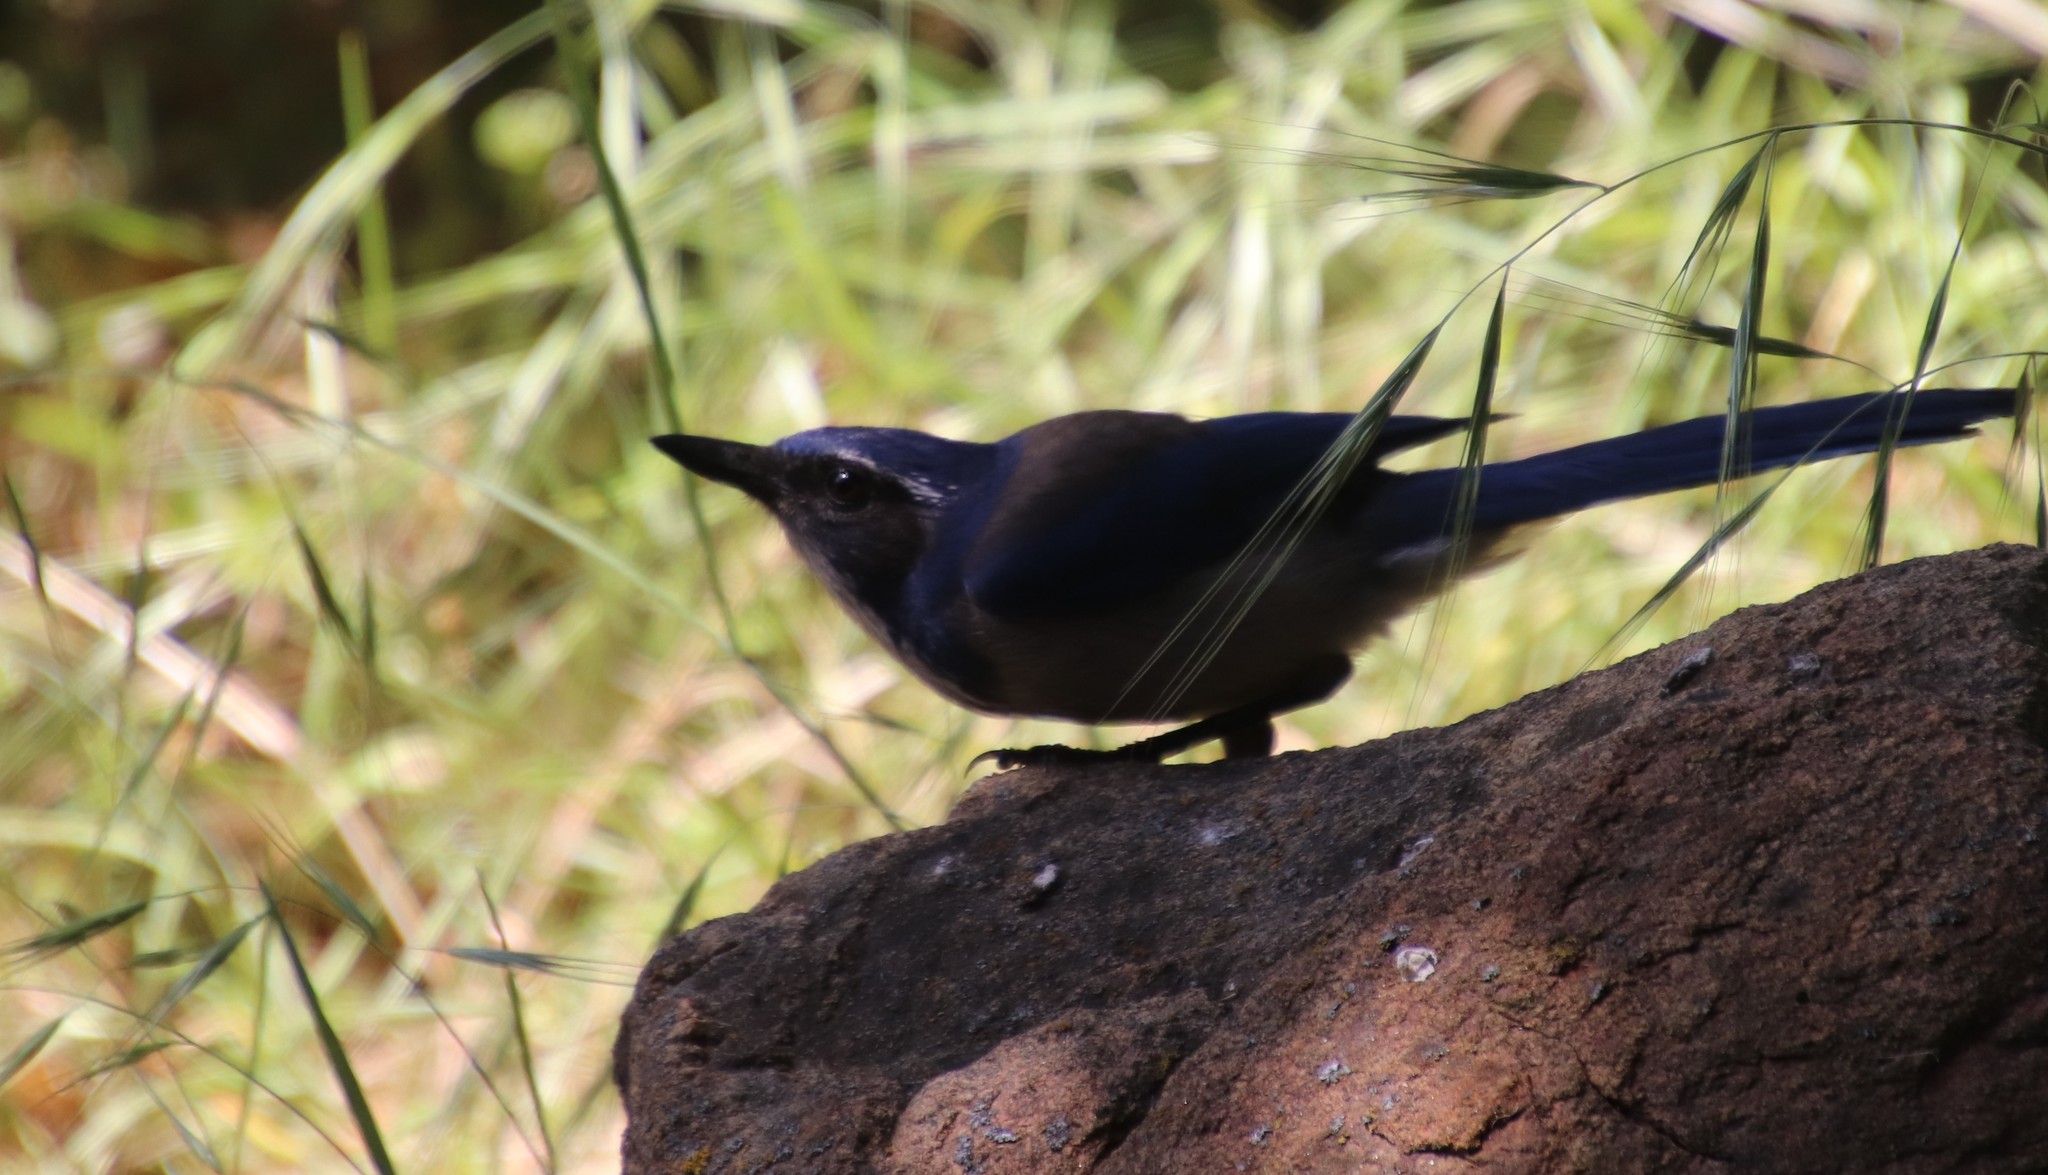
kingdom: Animalia
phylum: Chordata
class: Aves
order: Passeriformes
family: Corvidae
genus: Aphelocoma
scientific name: Aphelocoma californica
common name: California scrub-jay
